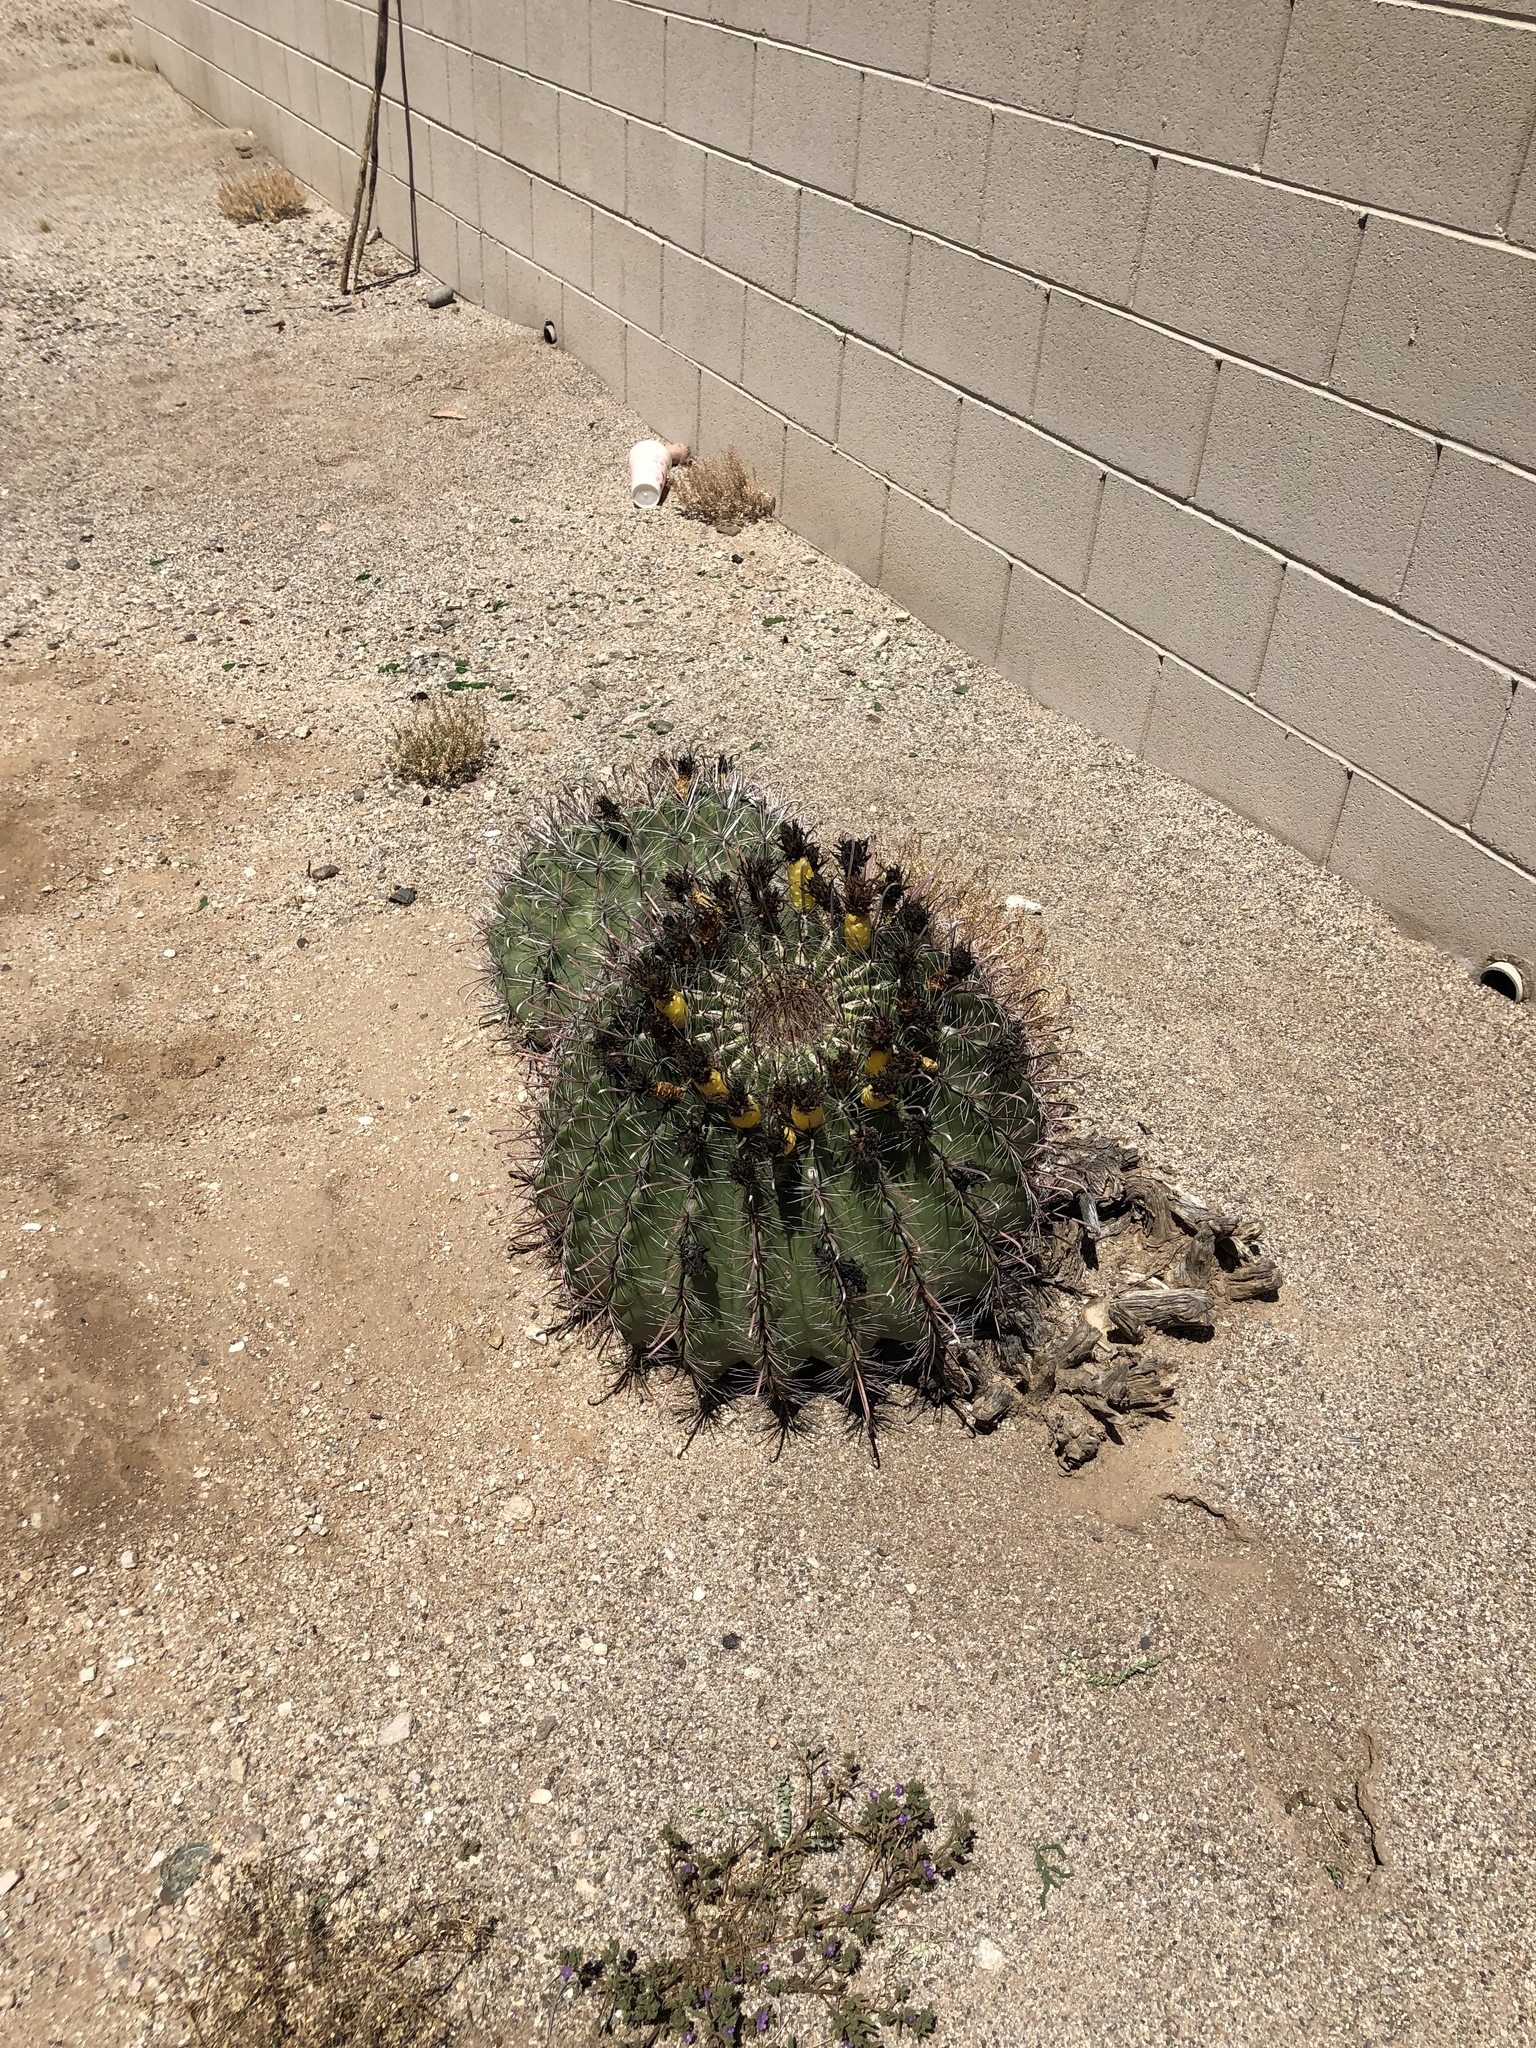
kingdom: Plantae
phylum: Tracheophyta
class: Magnoliopsida
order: Caryophyllales
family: Cactaceae
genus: Ferocactus
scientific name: Ferocactus wislizeni
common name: Candy barrel cactus
